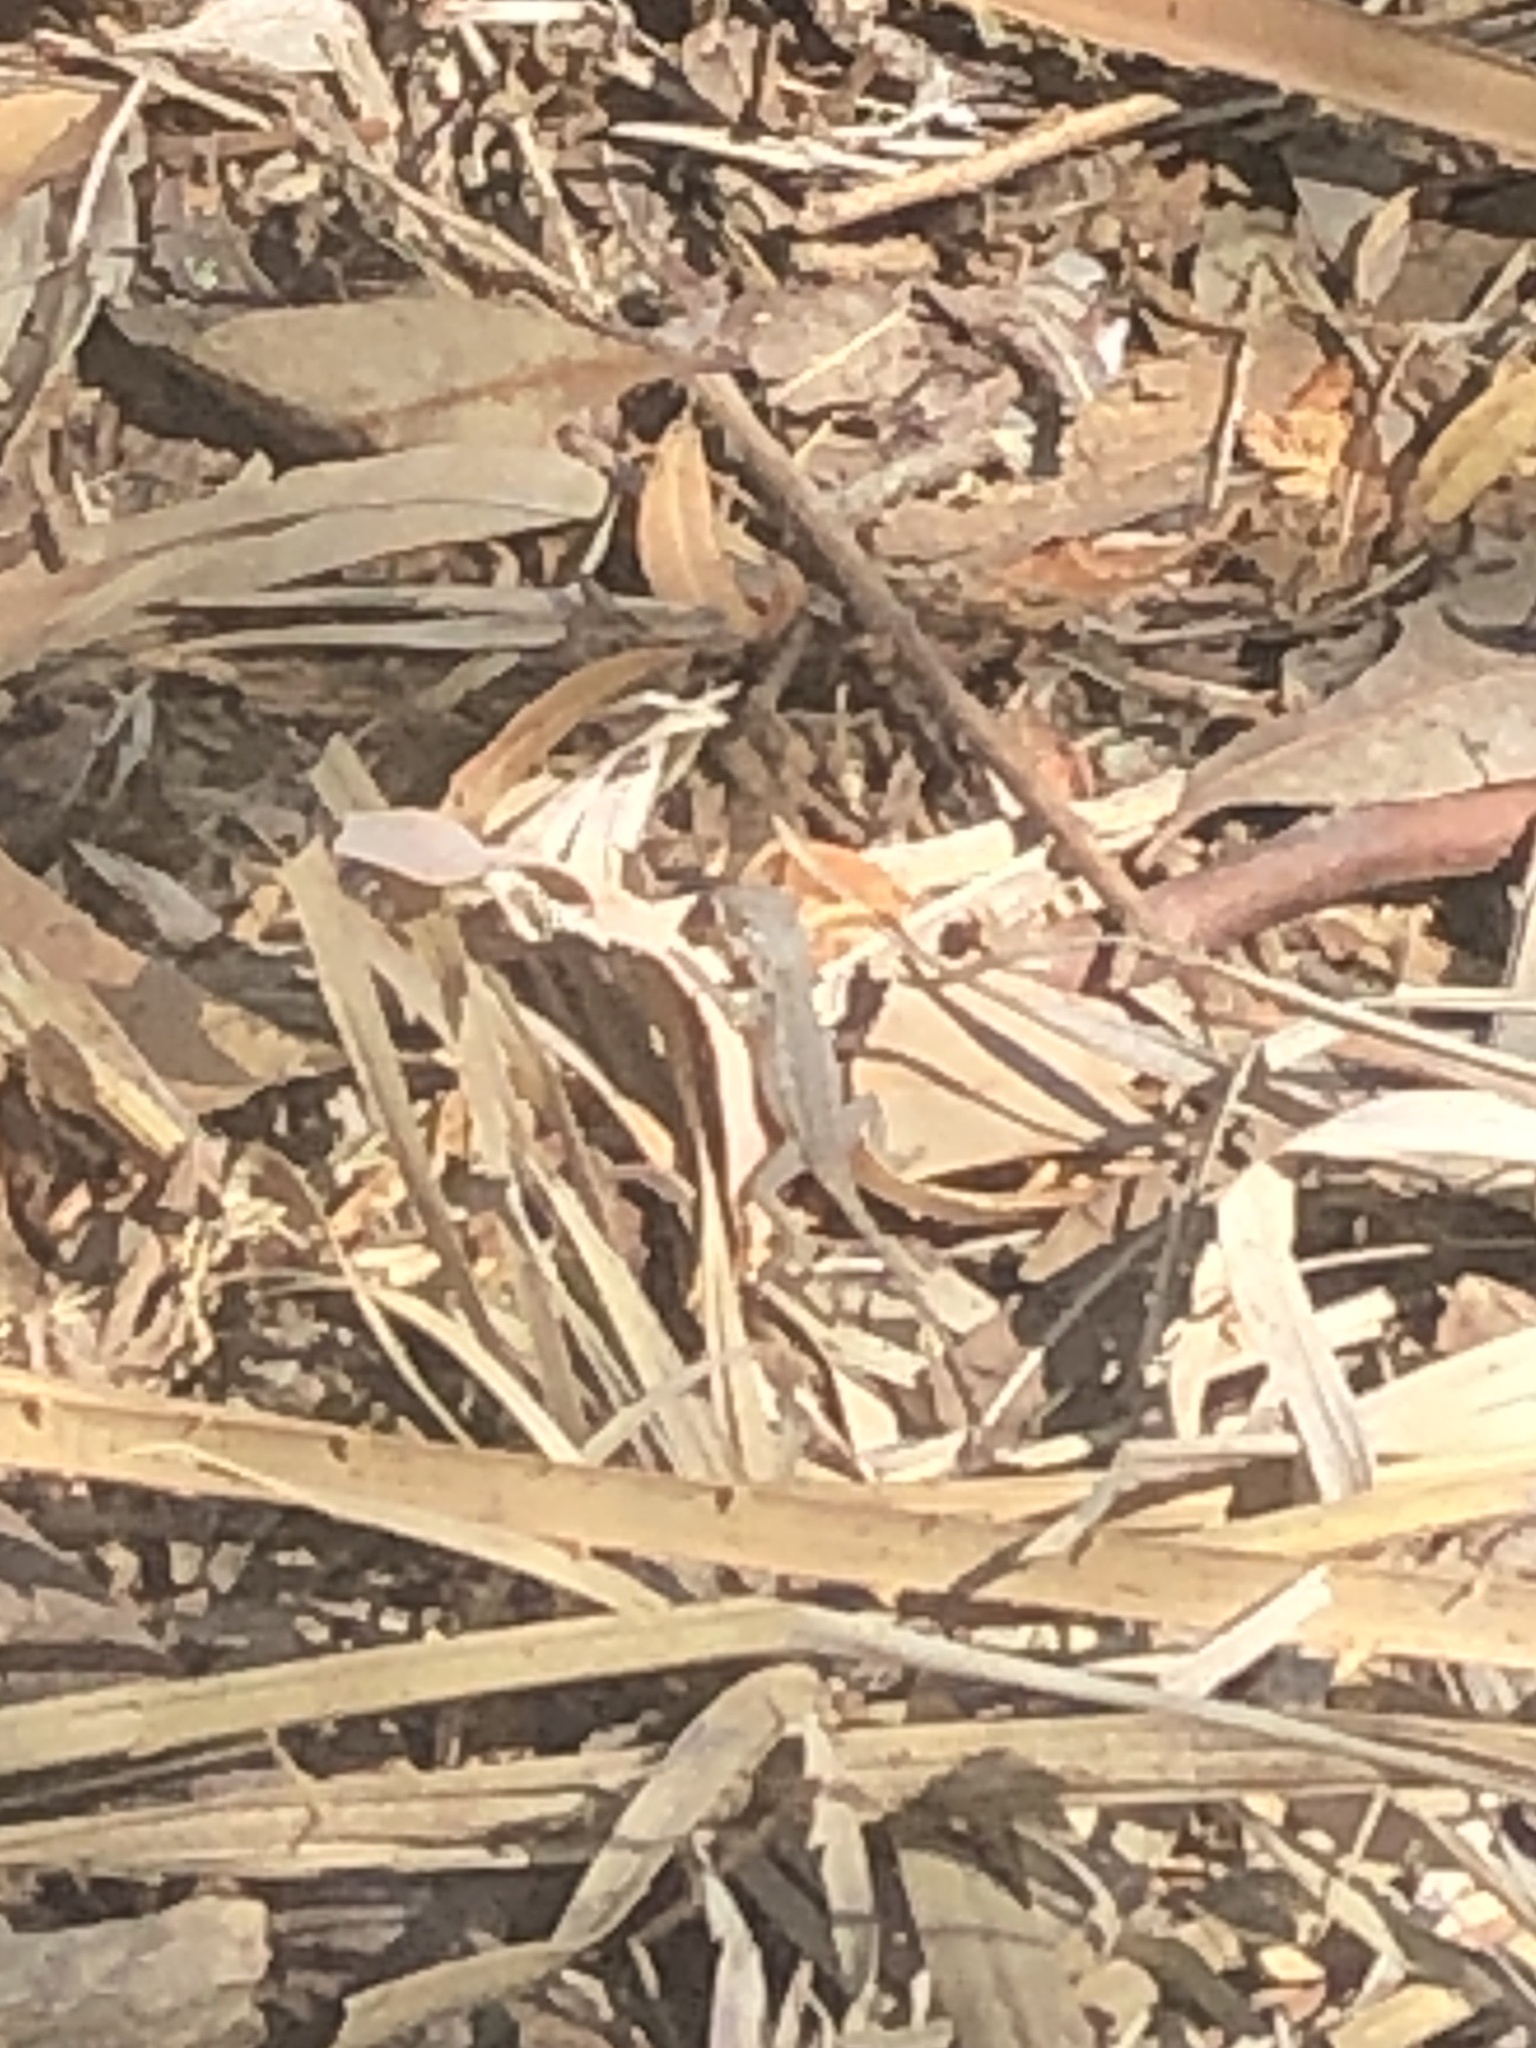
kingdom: Animalia
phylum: Chordata
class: Squamata
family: Phrynosomatidae
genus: Sceloporus
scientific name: Sceloporus occidentalis
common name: Western fence lizard
